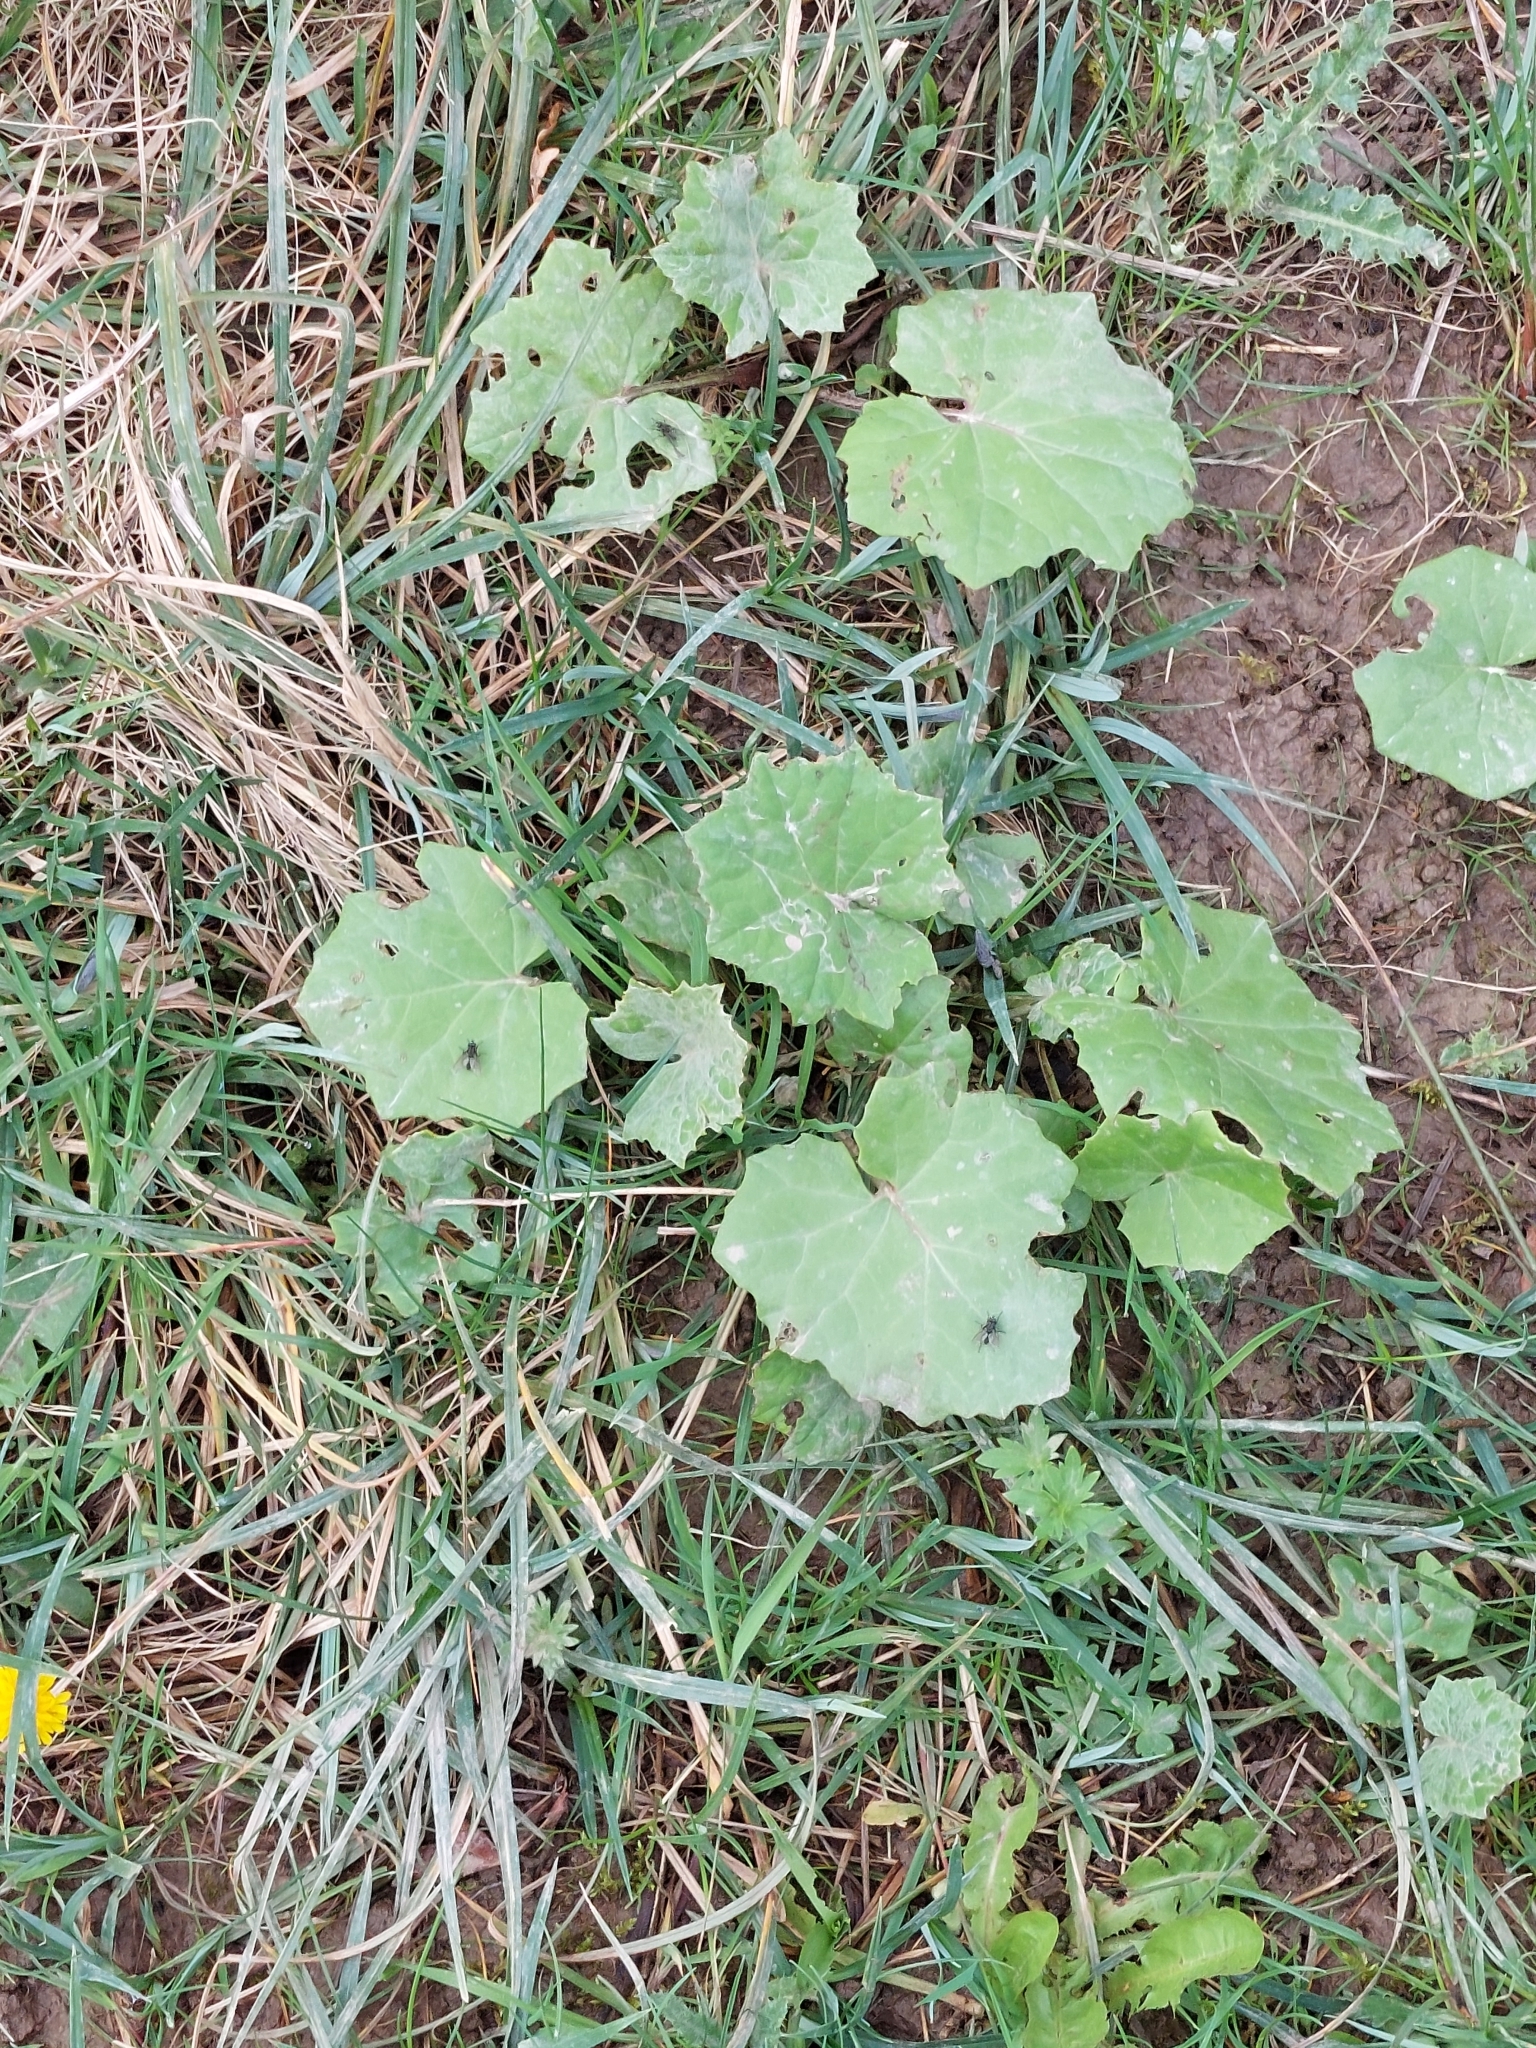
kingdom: Plantae
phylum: Tracheophyta
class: Magnoliopsida
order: Asterales
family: Asteraceae
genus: Tussilago
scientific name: Tussilago farfara
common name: Coltsfoot
